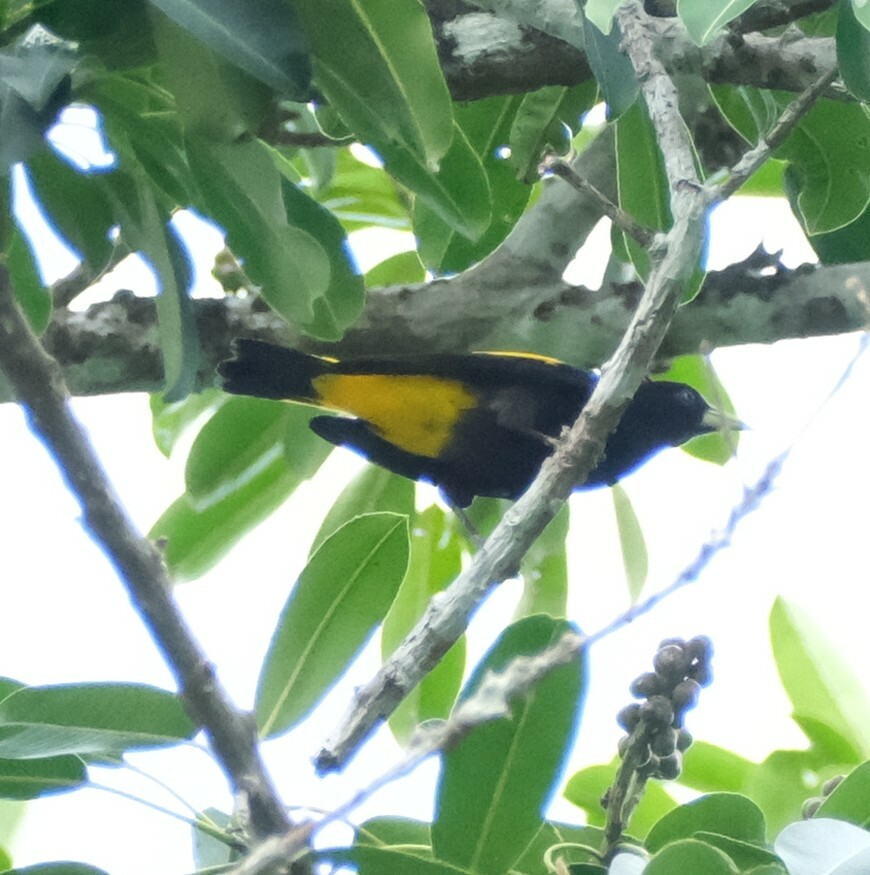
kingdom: Animalia
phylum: Chordata
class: Aves
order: Passeriformes
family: Icteridae
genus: Cacicus
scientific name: Cacicus cela
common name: Yellow-rumped cacique
